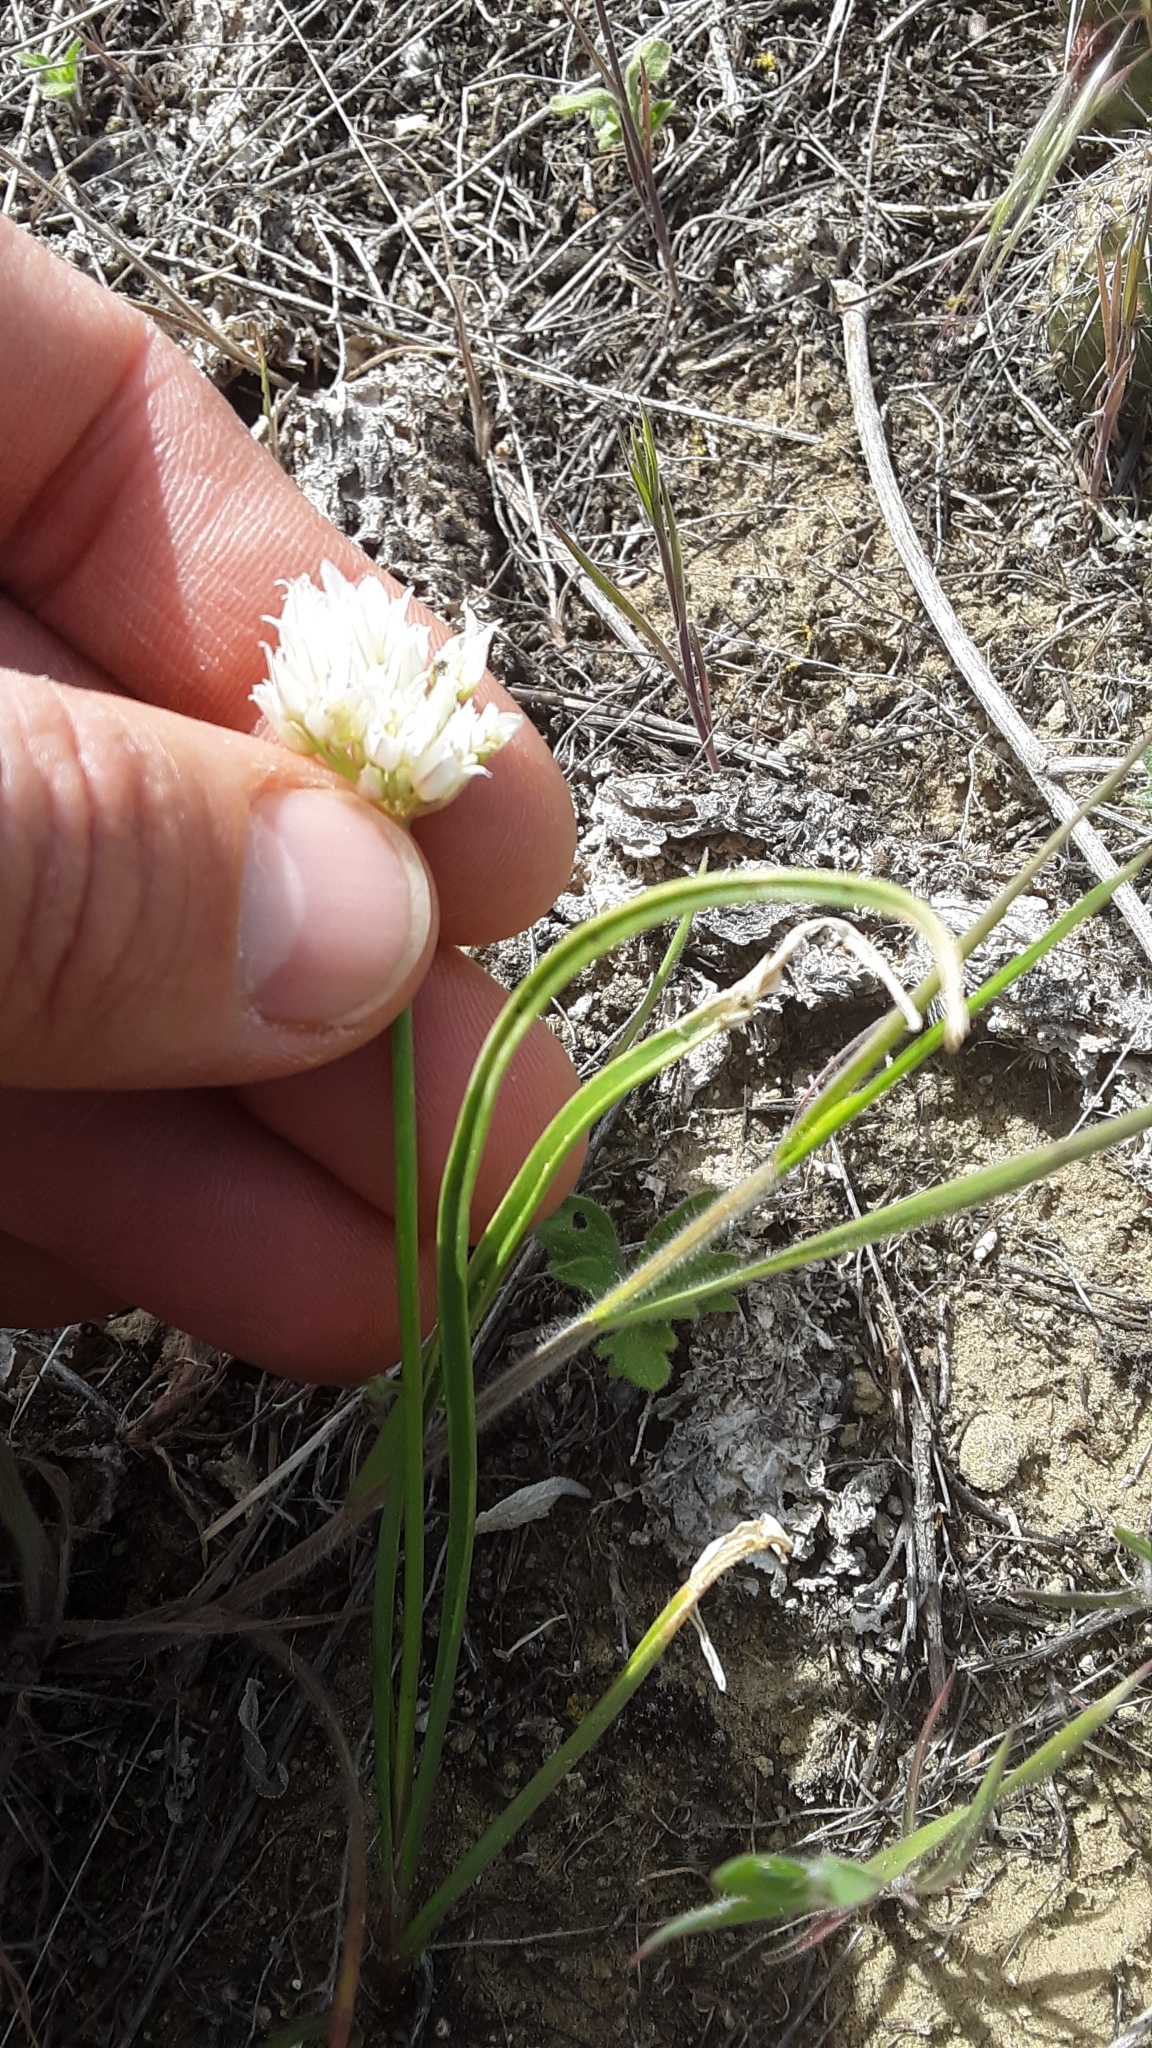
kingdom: Plantae
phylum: Tracheophyta
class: Liliopsida
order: Asparagales
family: Amaryllidaceae
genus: Allium
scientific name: Allium textile
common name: Prairie onion
